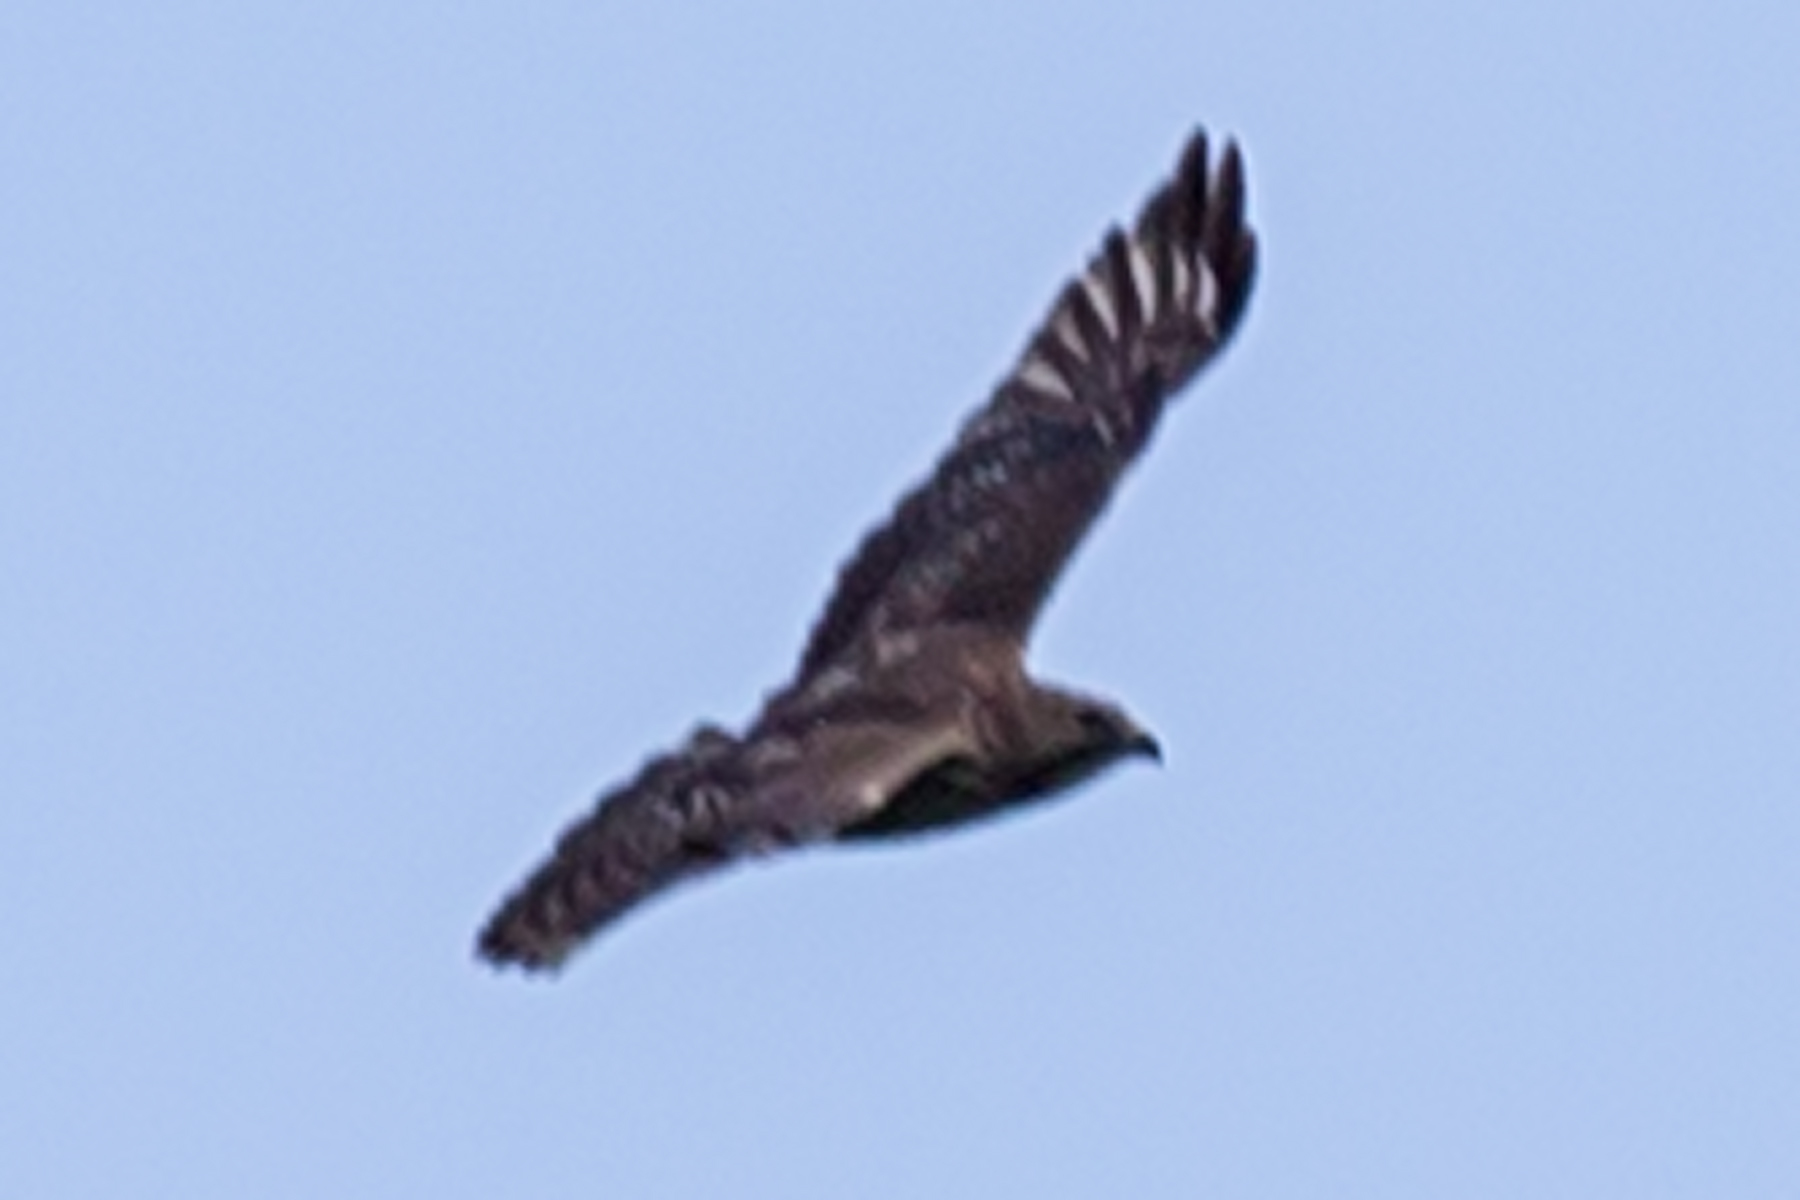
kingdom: Animalia
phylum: Chordata
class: Aves
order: Accipitriformes
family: Accipitridae
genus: Buteo
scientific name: Buteo platypterus
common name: Broad-winged hawk
